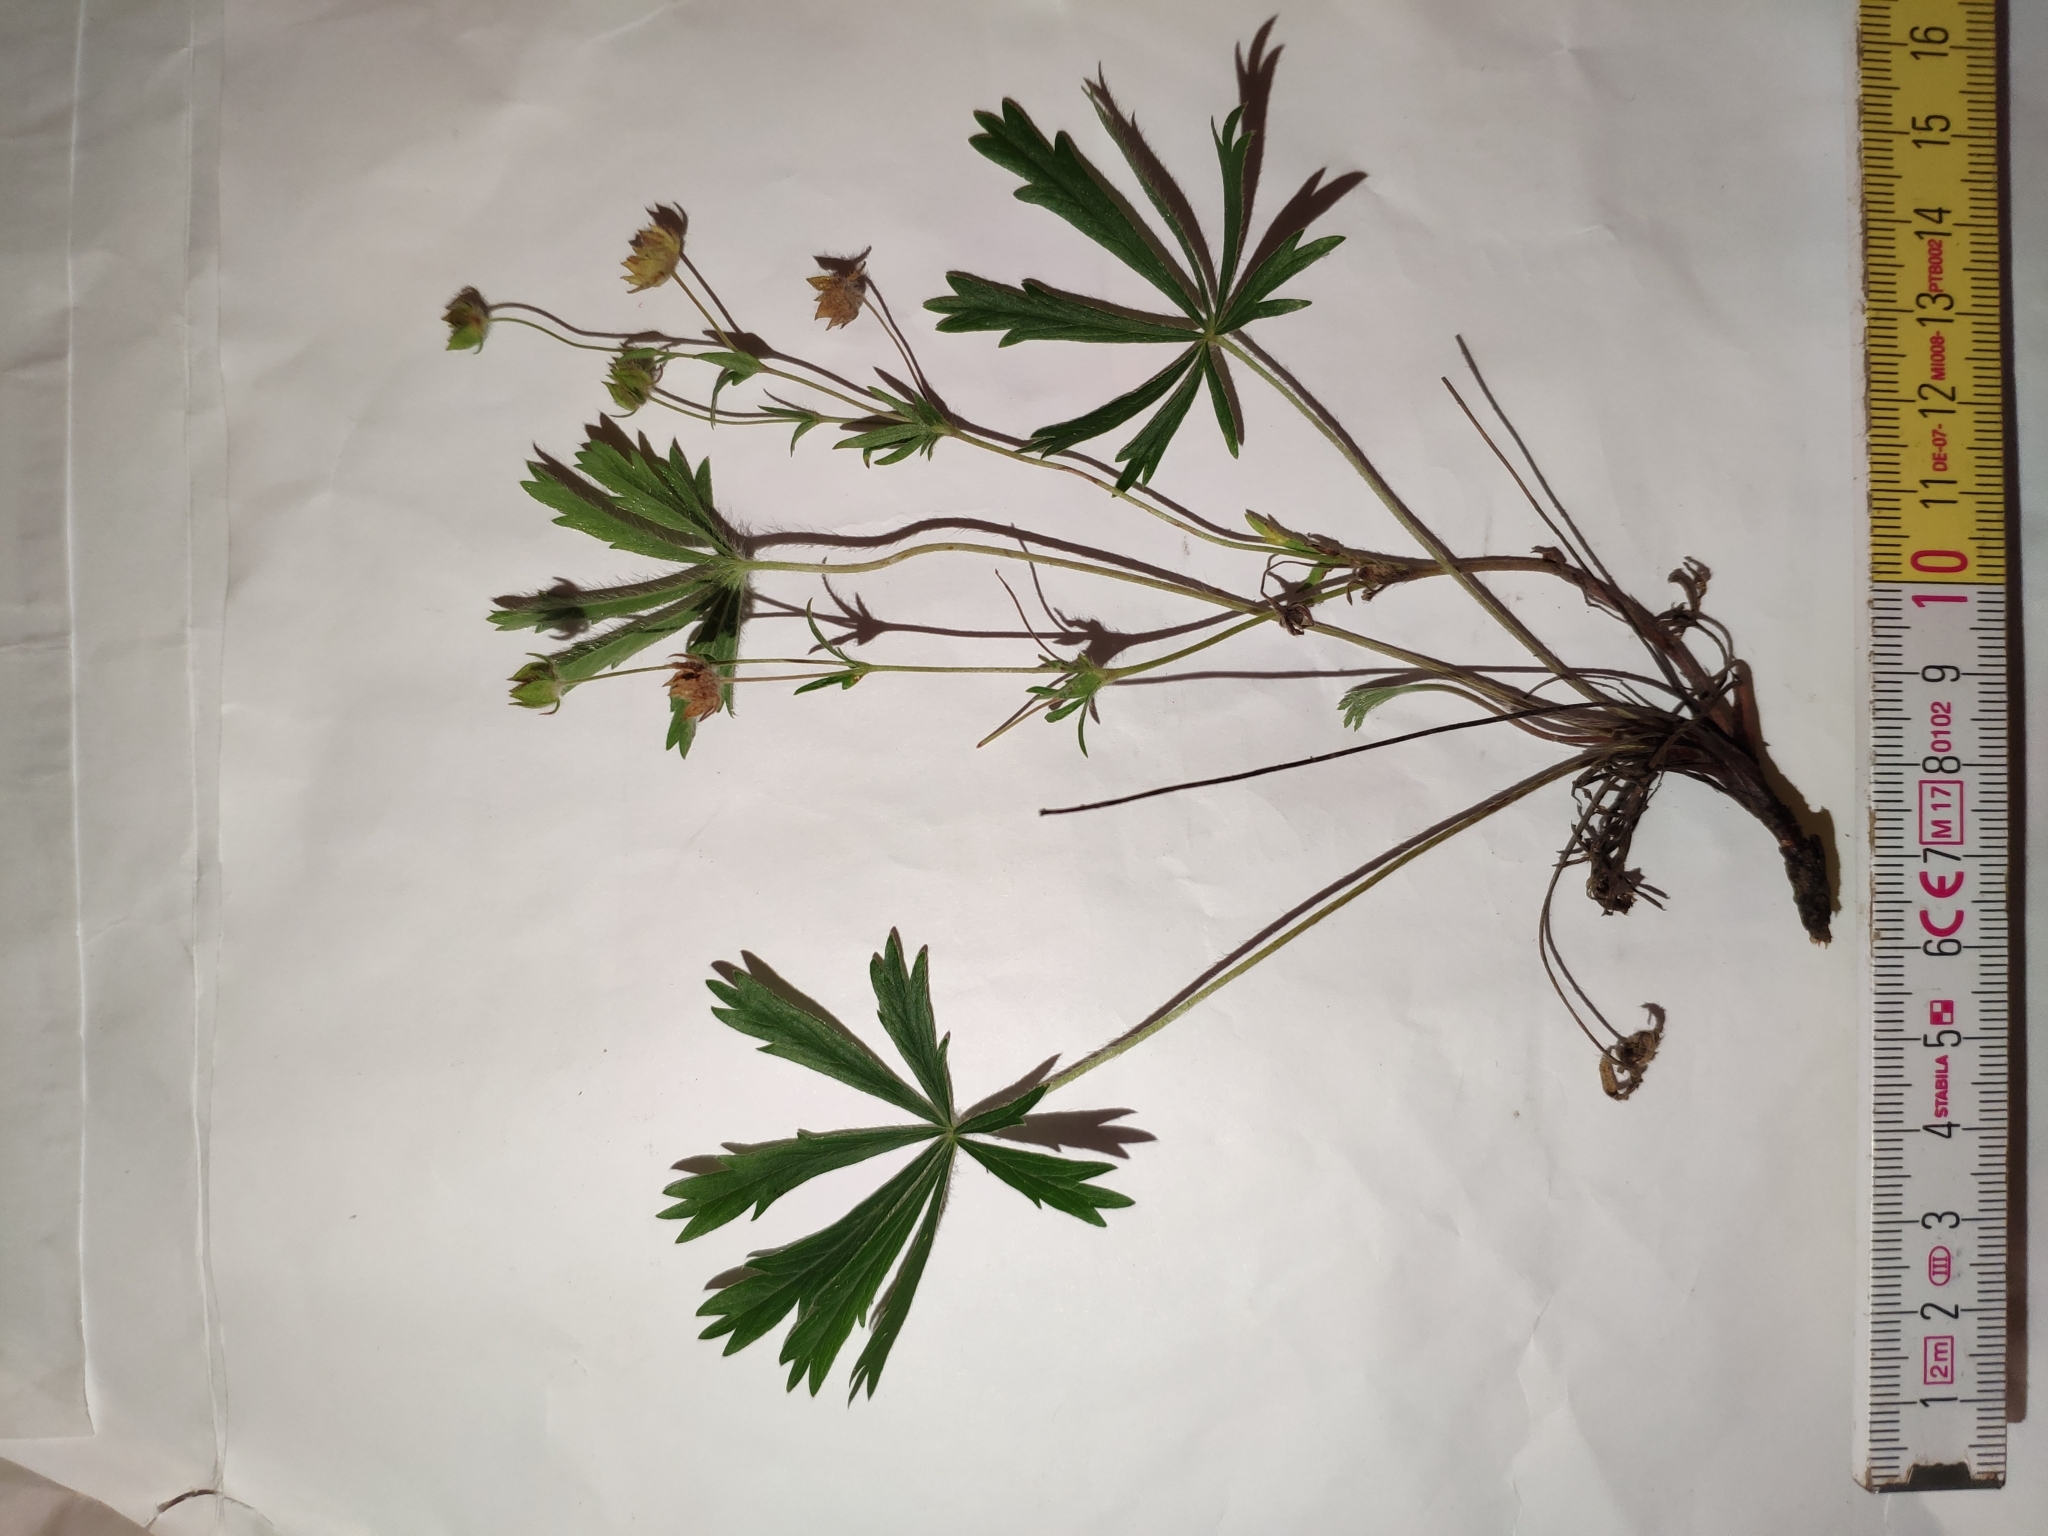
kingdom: Plantae
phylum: Tracheophyta
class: Magnoliopsida
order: Rosales
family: Rosaceae
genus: Potentilla
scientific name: Potentilla patula
